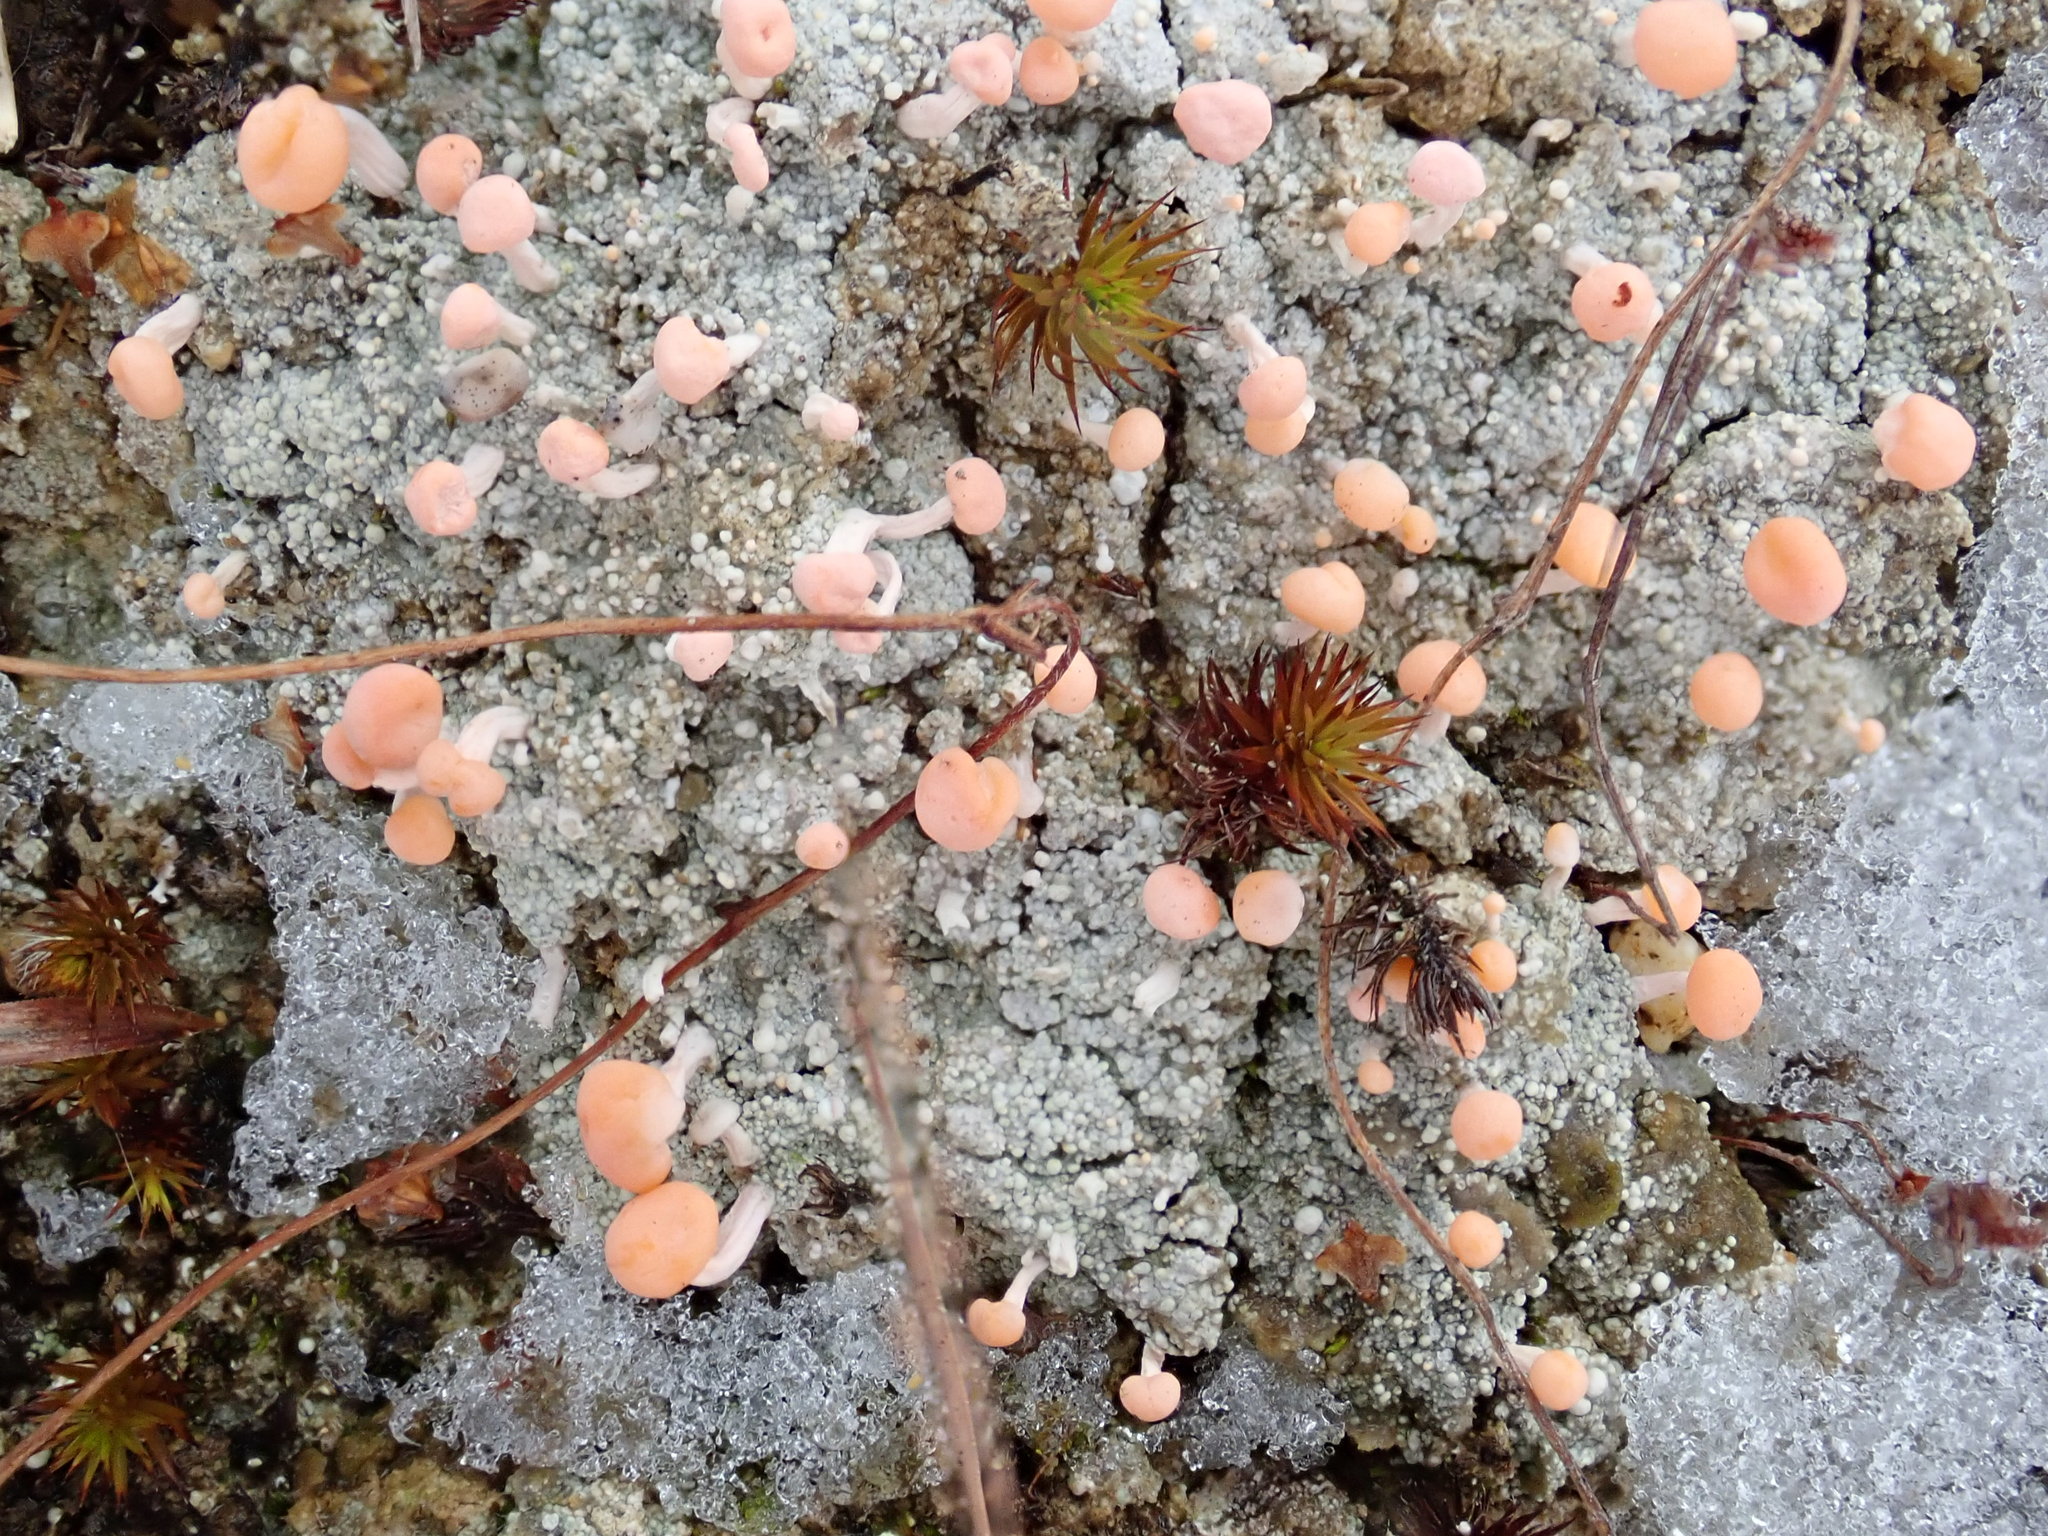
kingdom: Fungi
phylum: Ascomycota
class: Lecanoromycetes
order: Pertusariales
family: Icmadophilaceae
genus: Dibaeis
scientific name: Dibaeis baeomyces
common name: Pink earth lichen
